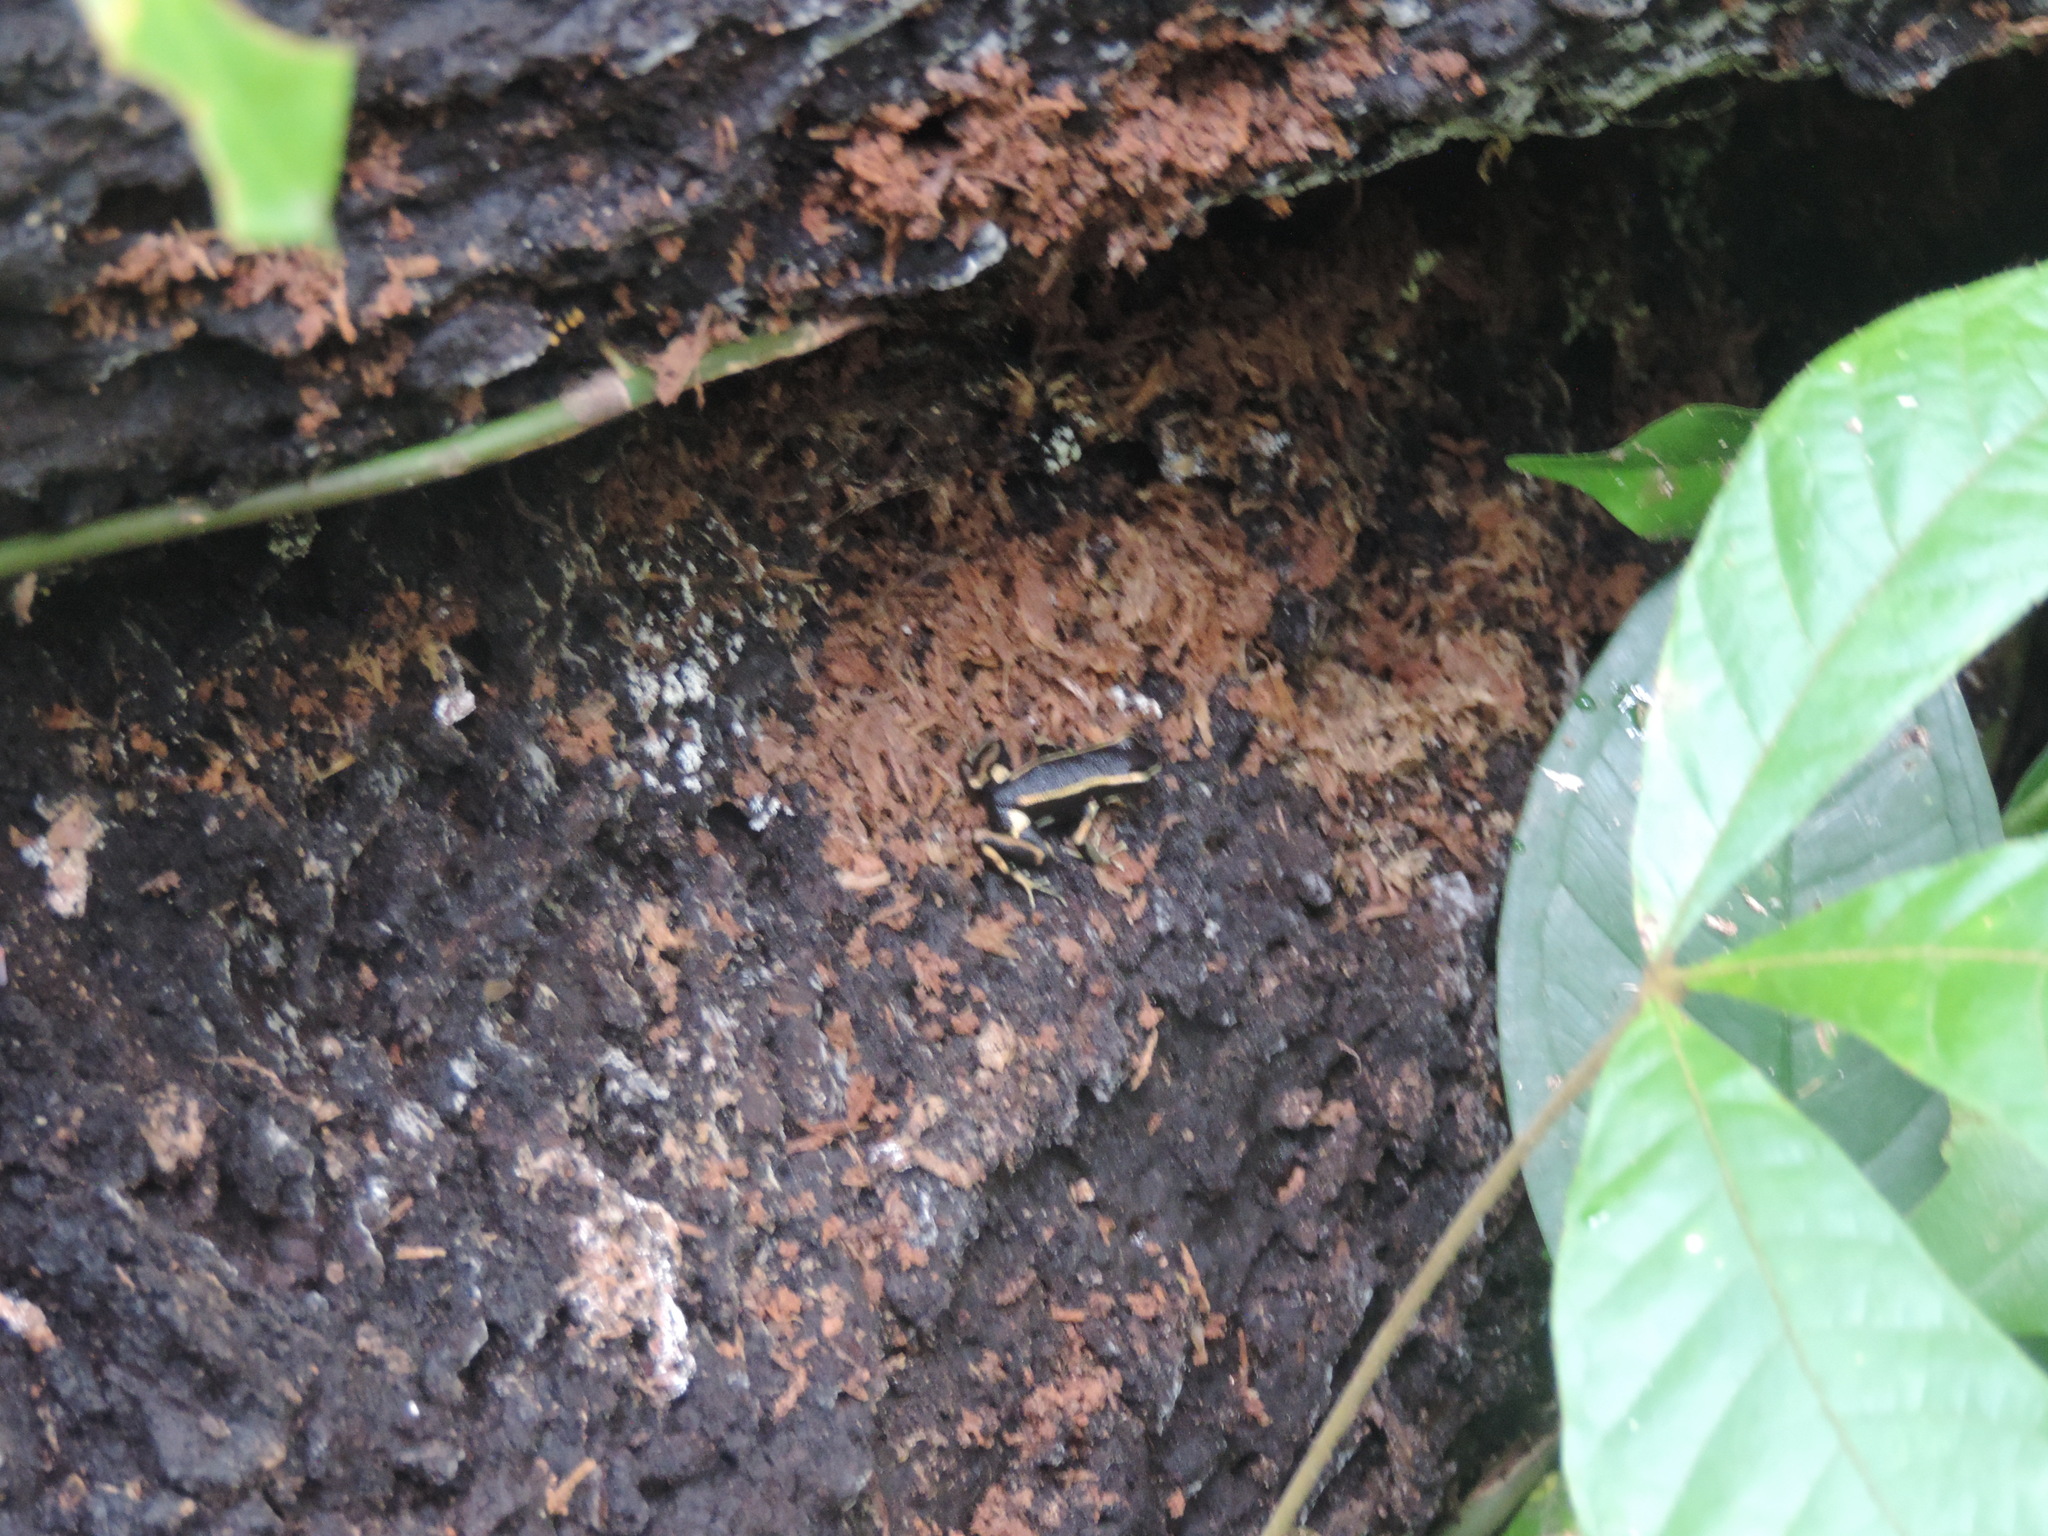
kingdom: Animalia
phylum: Chordata
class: Amphibia
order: Anura
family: Dendrobatidae
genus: Dendrobates
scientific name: Dendrobates truncatus
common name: Yellow-striped poison frog
